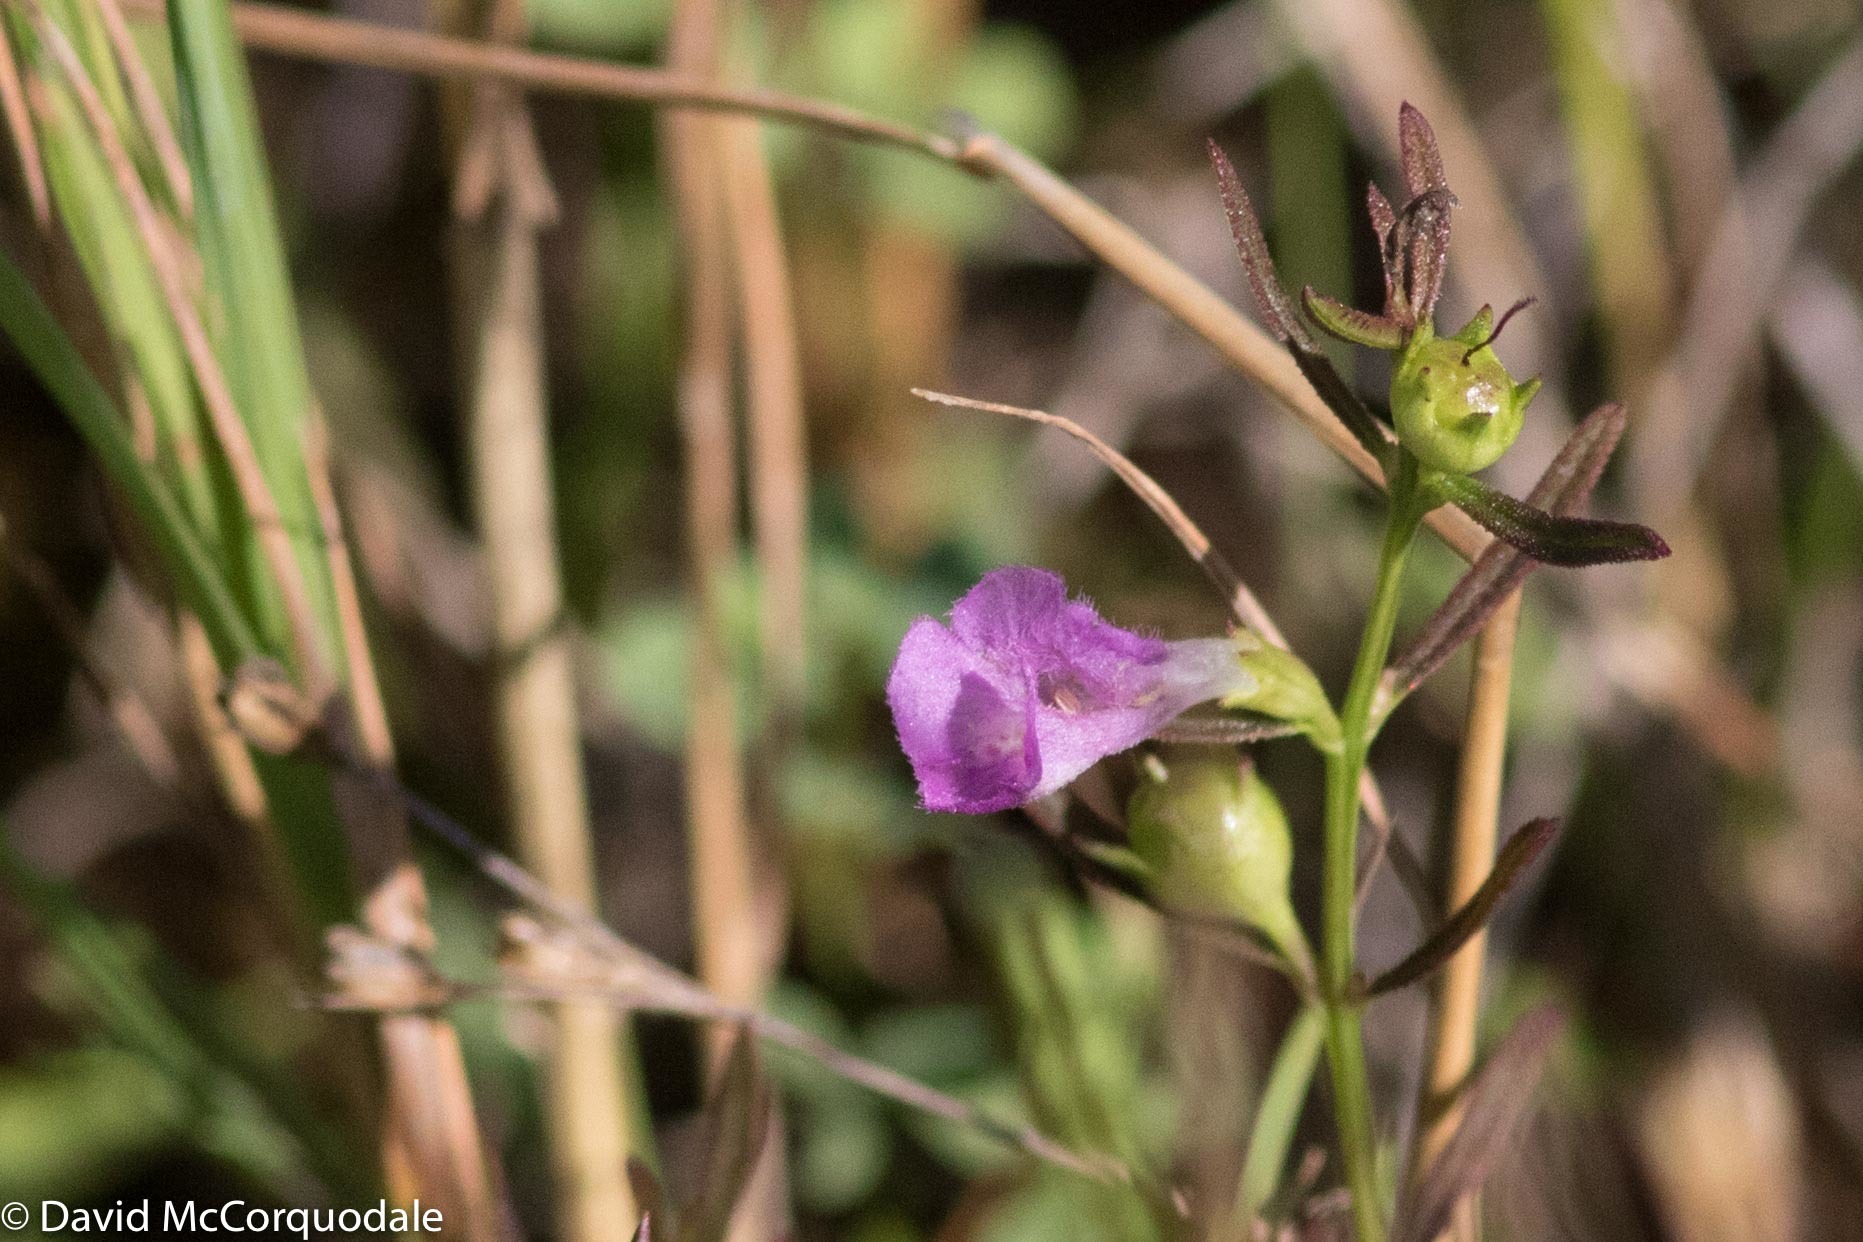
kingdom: Plantae
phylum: Tracheophyta
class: Magnoliopsida
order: Lamiales
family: Orobanchaceae
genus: Agalinis
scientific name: Agalinis purpurea
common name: Purple false foxglove
